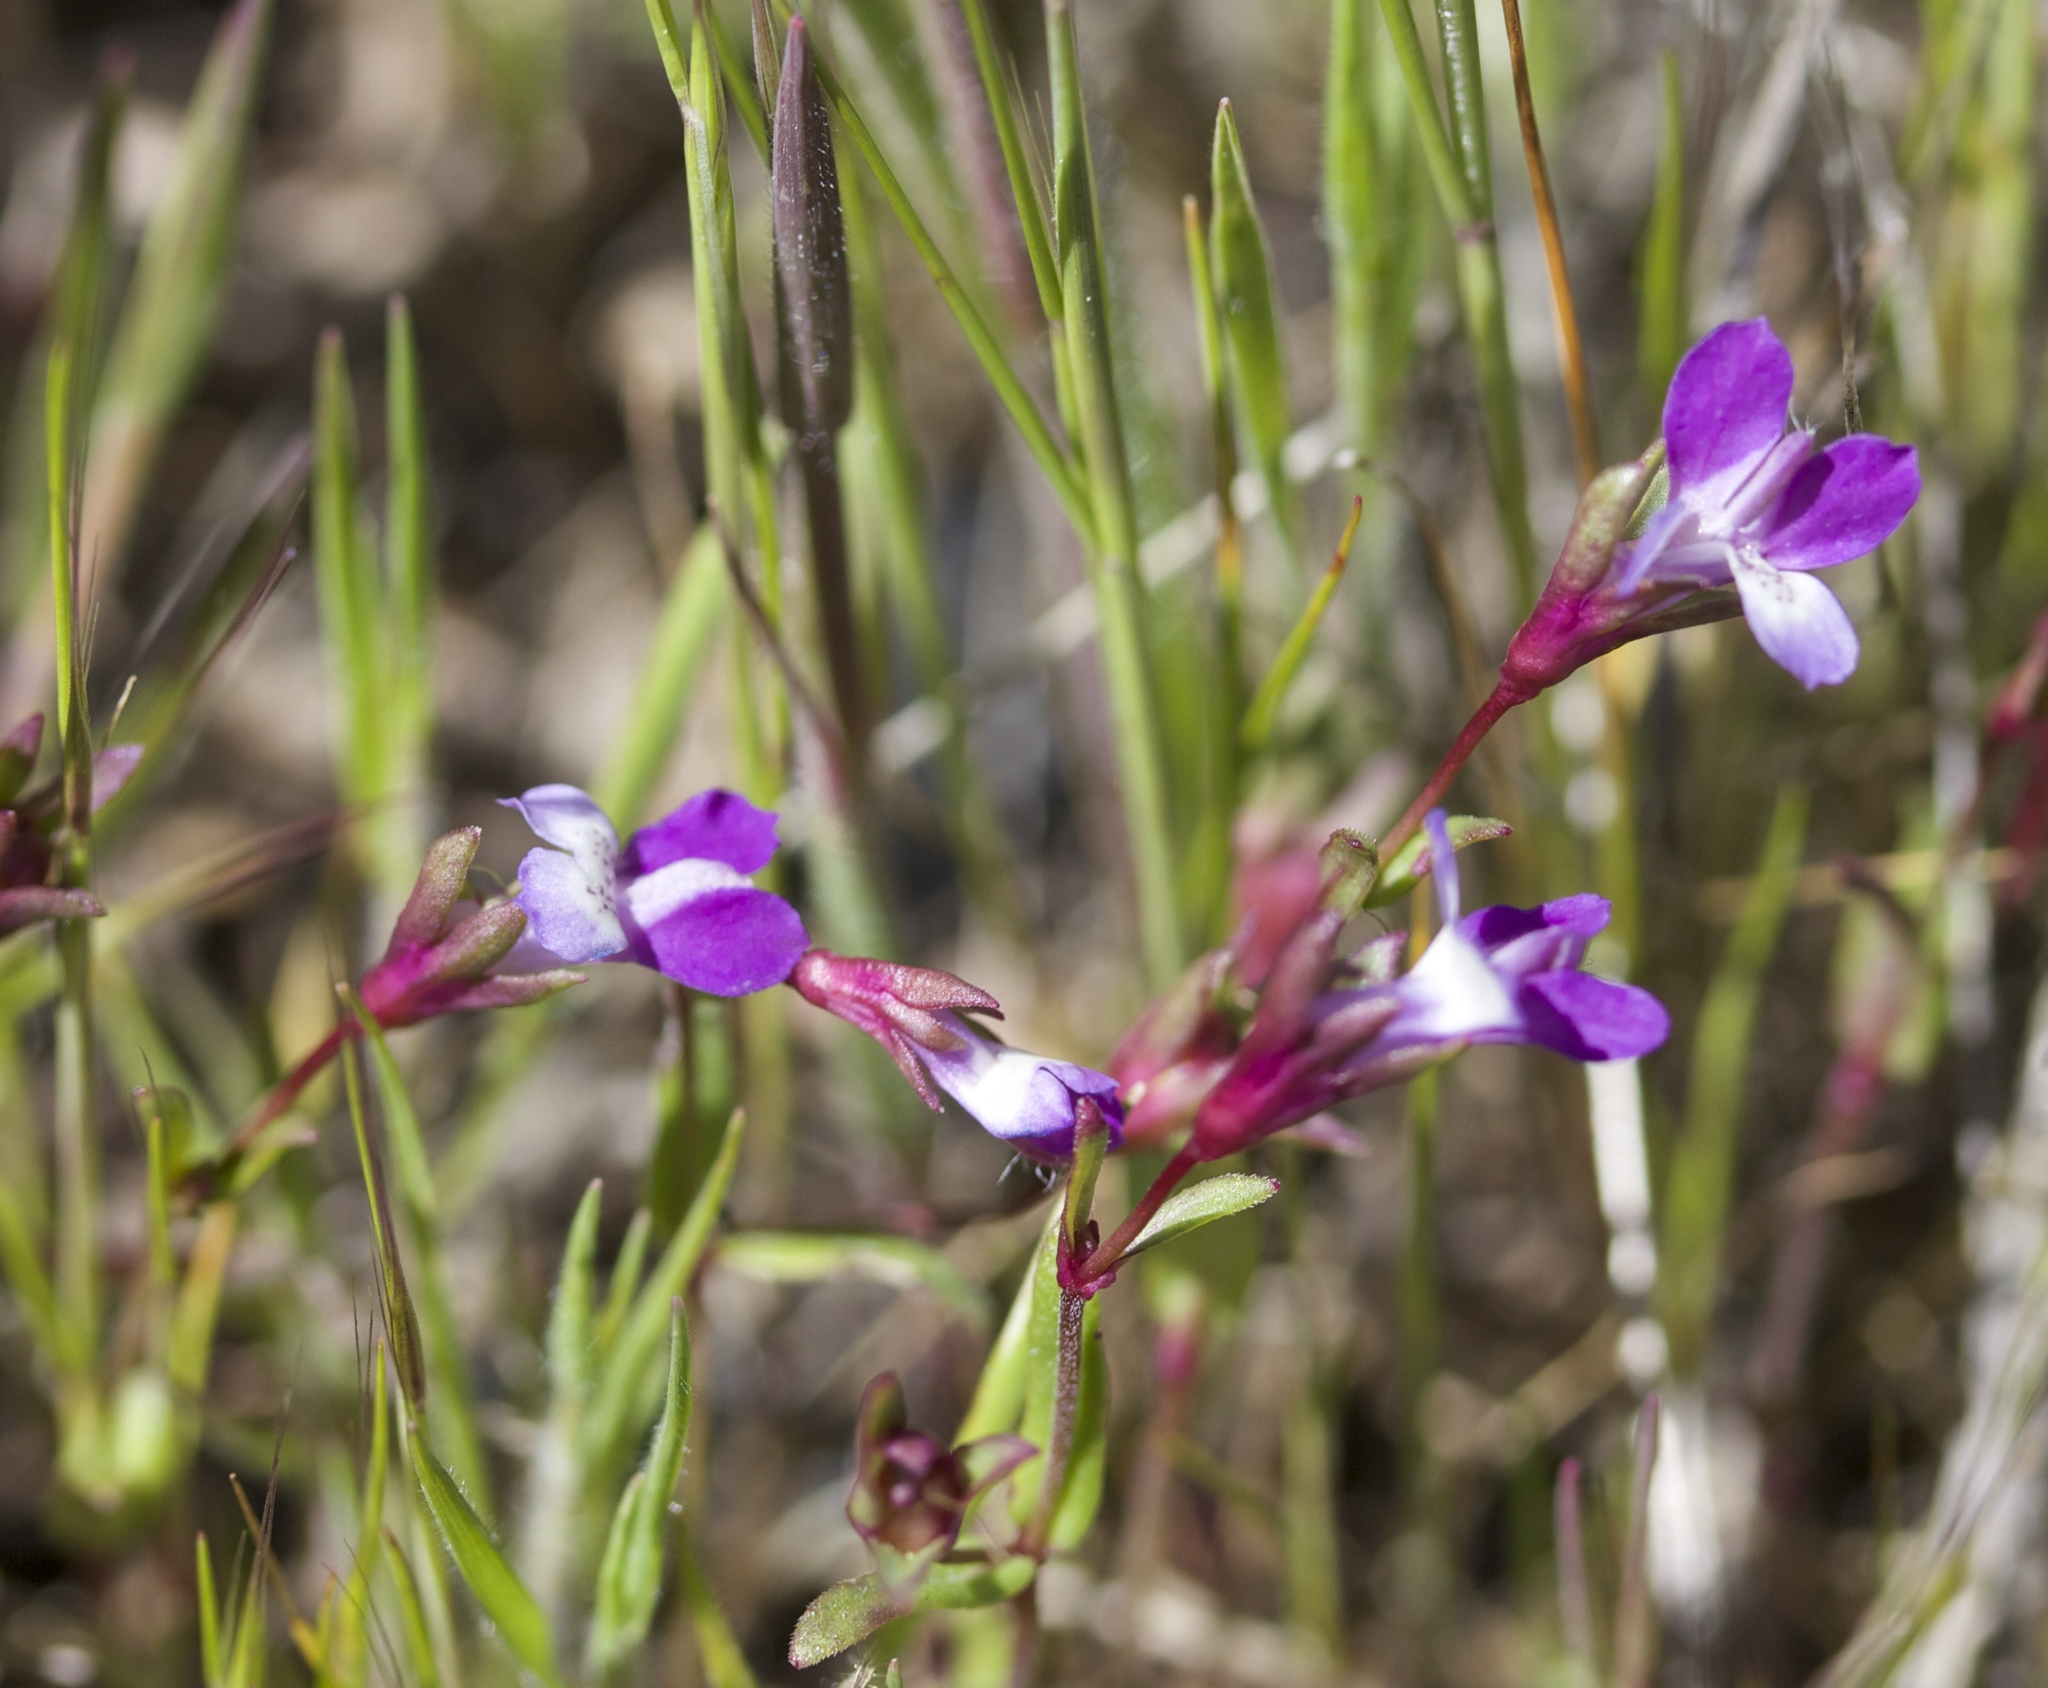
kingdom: Plantae
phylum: Tracheophyta
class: Magnoliopsida
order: Lamiales
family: Plantaginaceae
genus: Collinsia
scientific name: Collinsia sparsiflora
